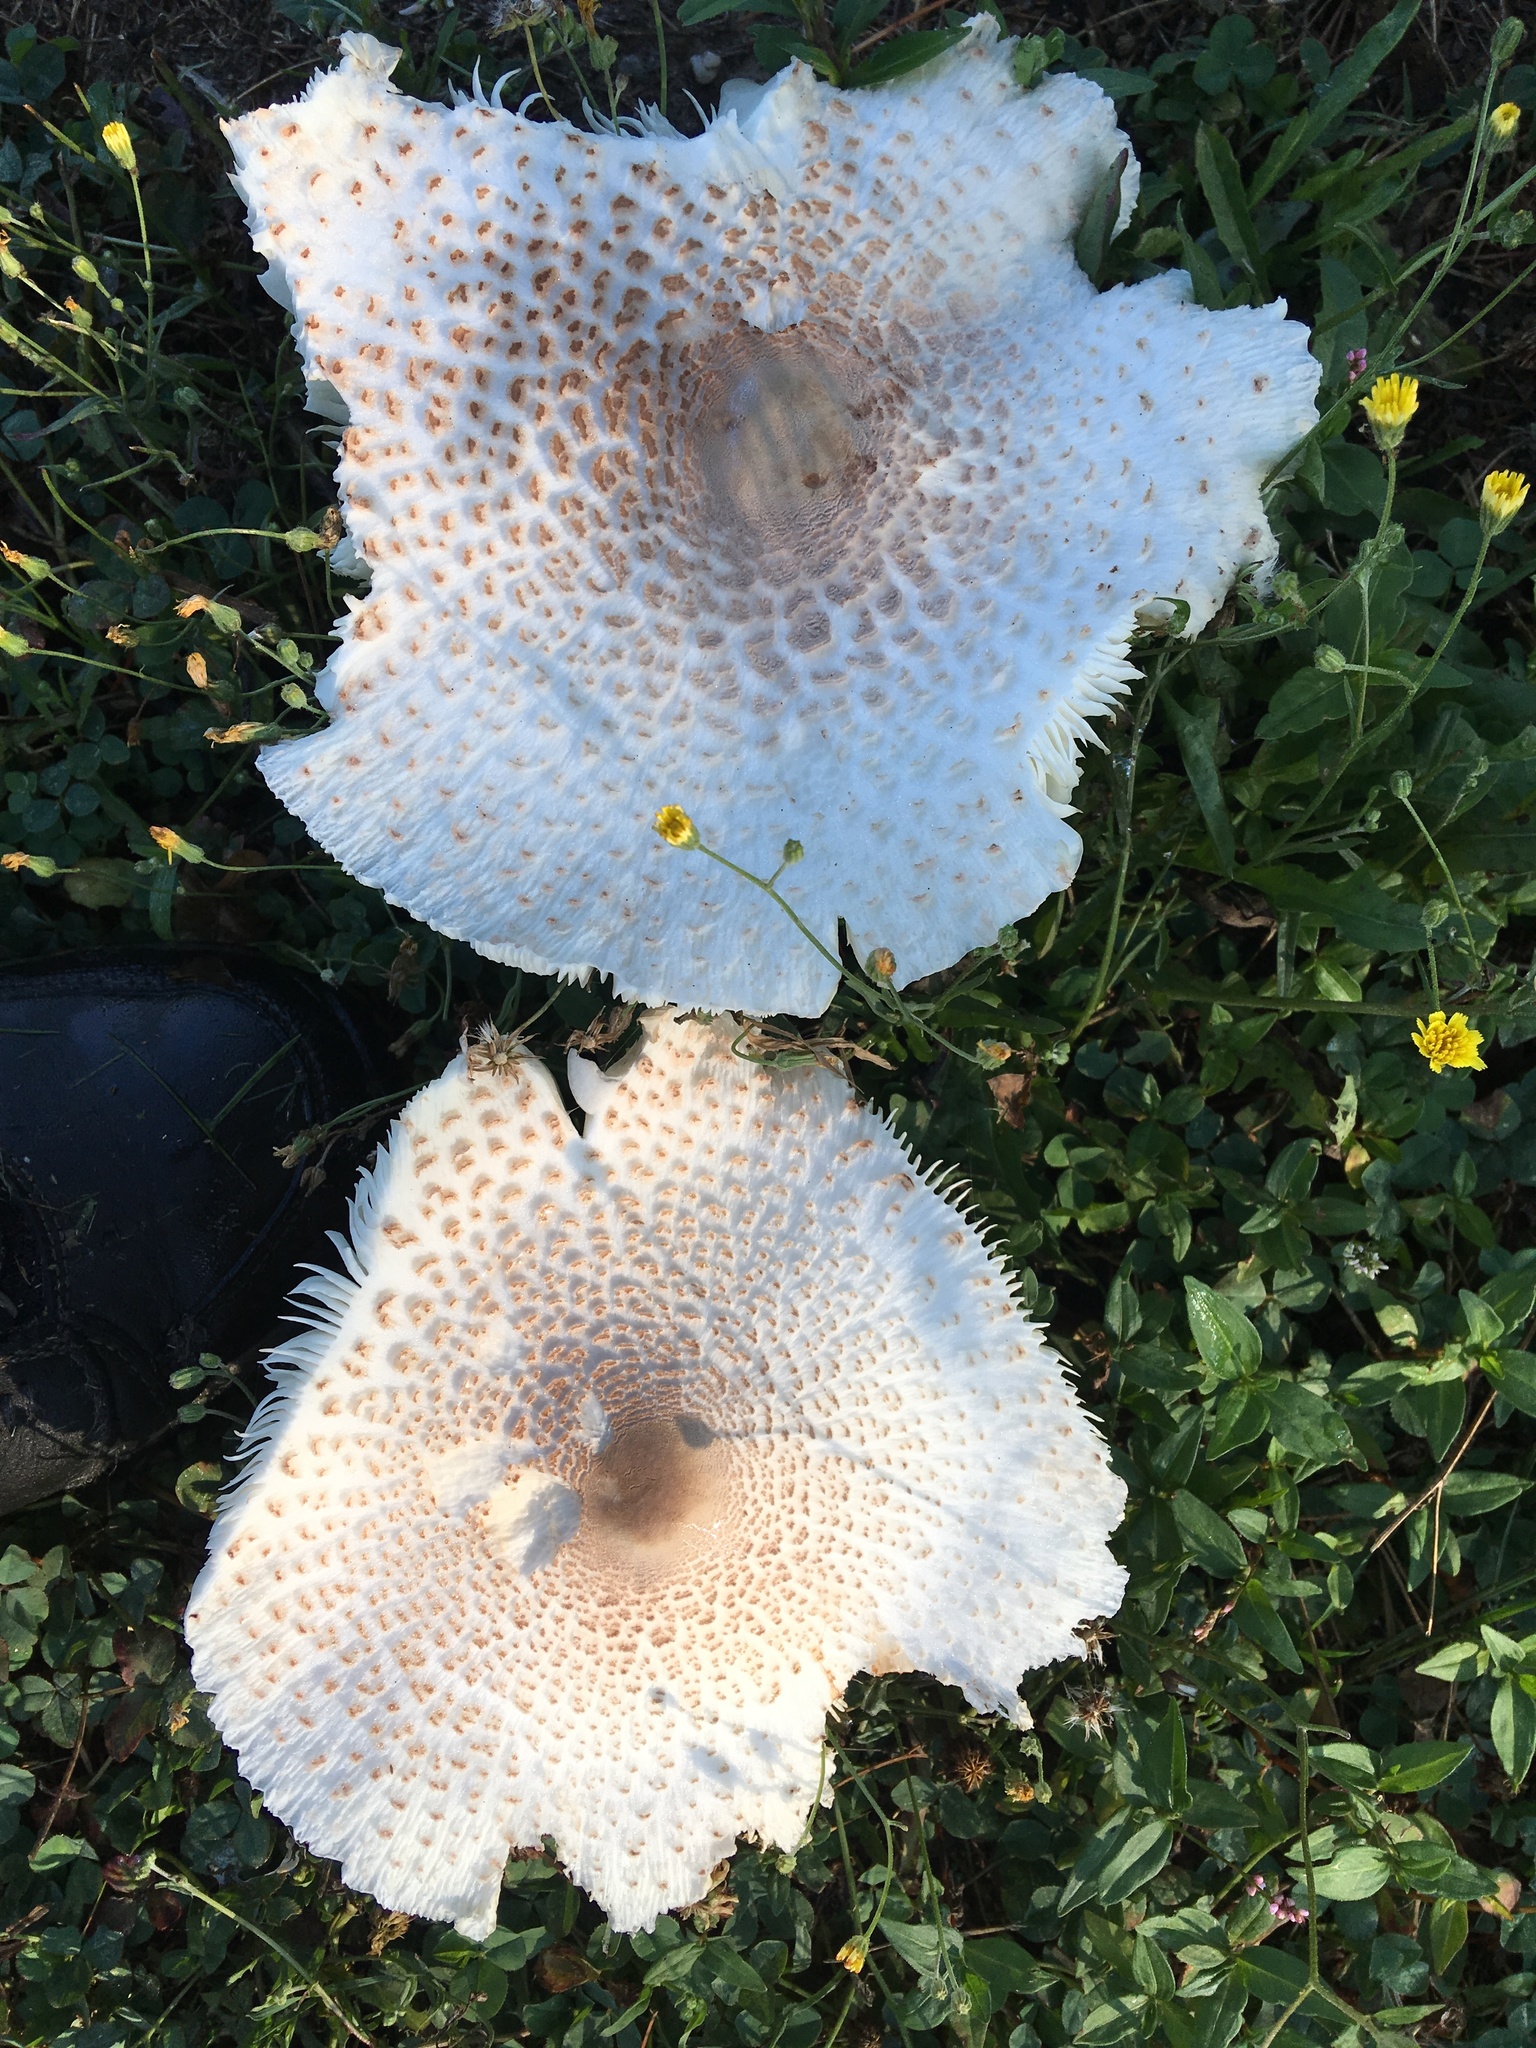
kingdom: Fungi
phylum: Basidiomycota
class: Agaricomycetes
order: Agaricales
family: Agaricaceae
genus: Leucoagaricus
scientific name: Leucoagaricus americanus
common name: Reddening lepiota
